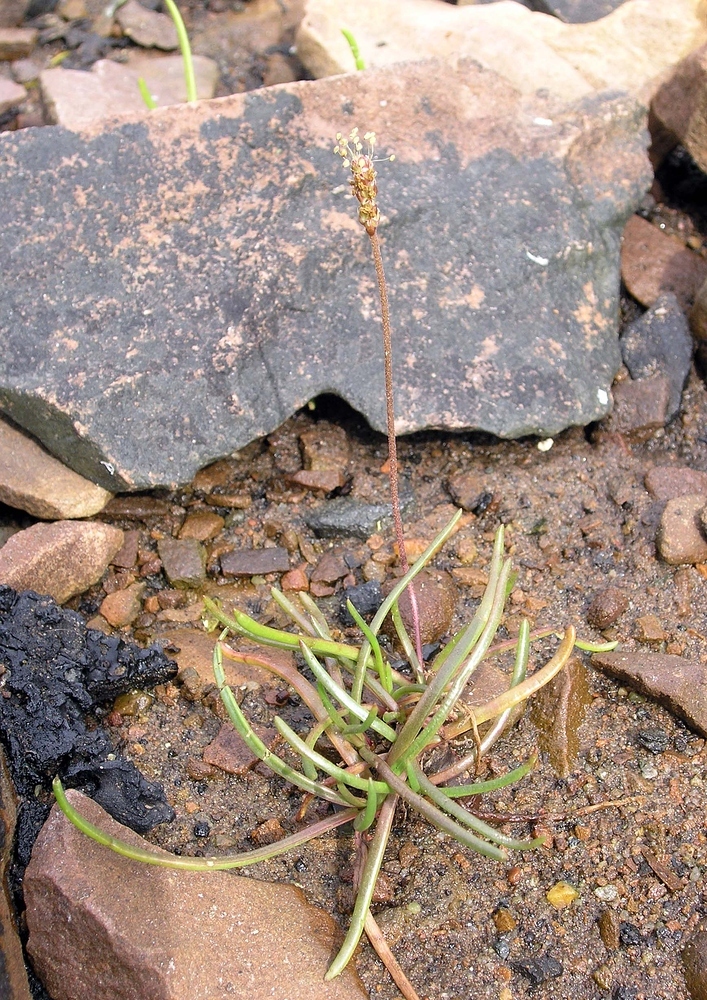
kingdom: Plantae
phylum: Tracheophyta
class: Magnoliopsida
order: Lamiales
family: Plantaginaceae
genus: Plantago
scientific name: Plantago maritima
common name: Sea plantain
